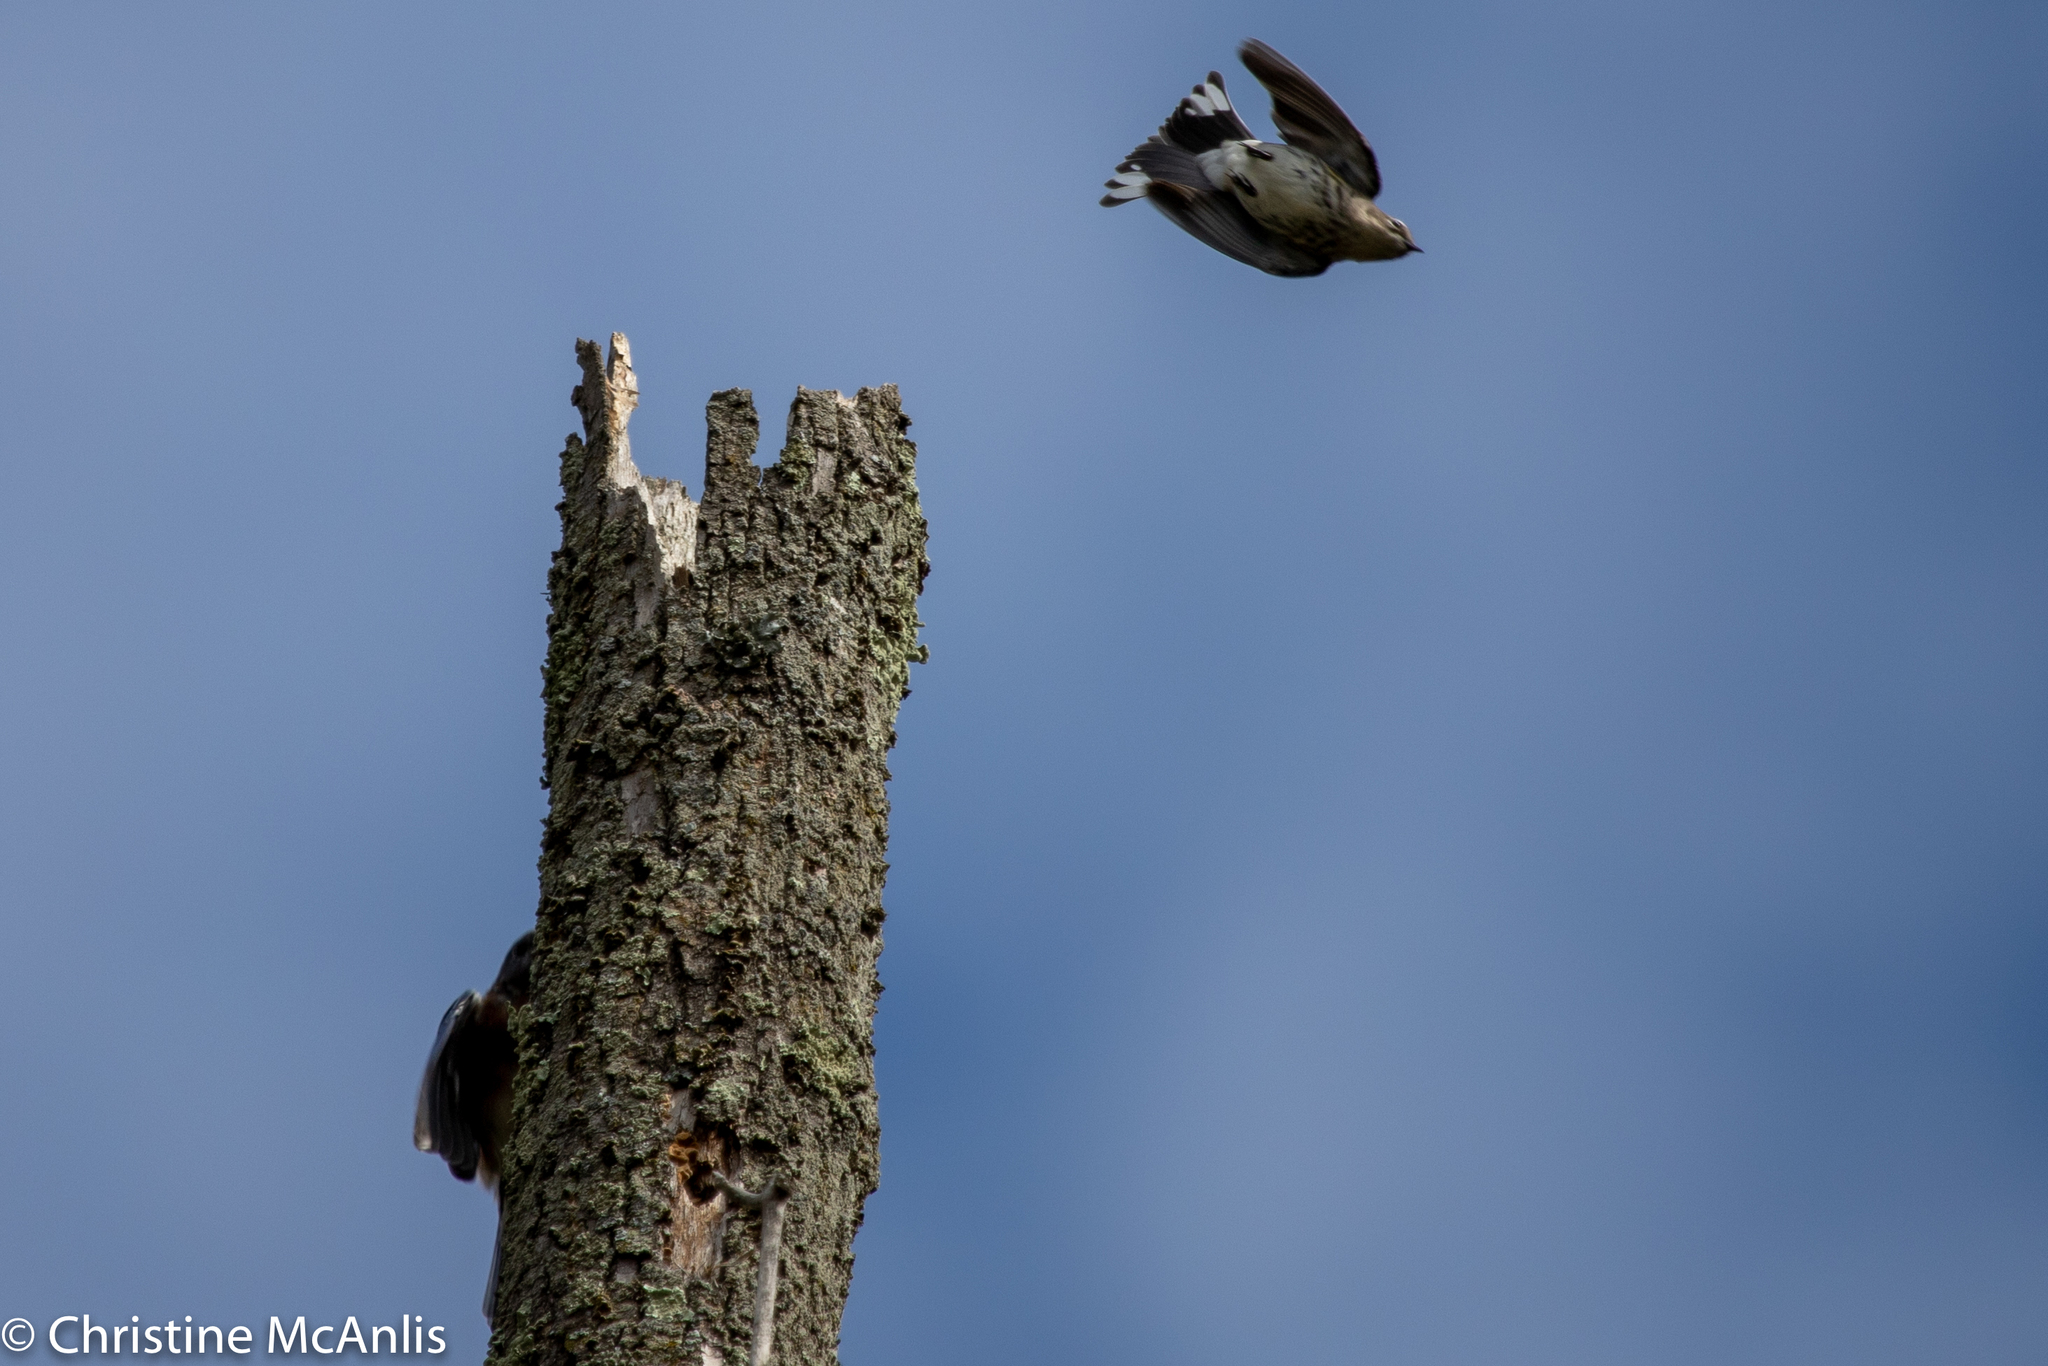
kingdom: Animalia
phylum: Chordata
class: Aves
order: Passeriformes
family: Parulidae
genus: Setophaga
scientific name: Setophaga coronata
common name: Myrtle warbler
